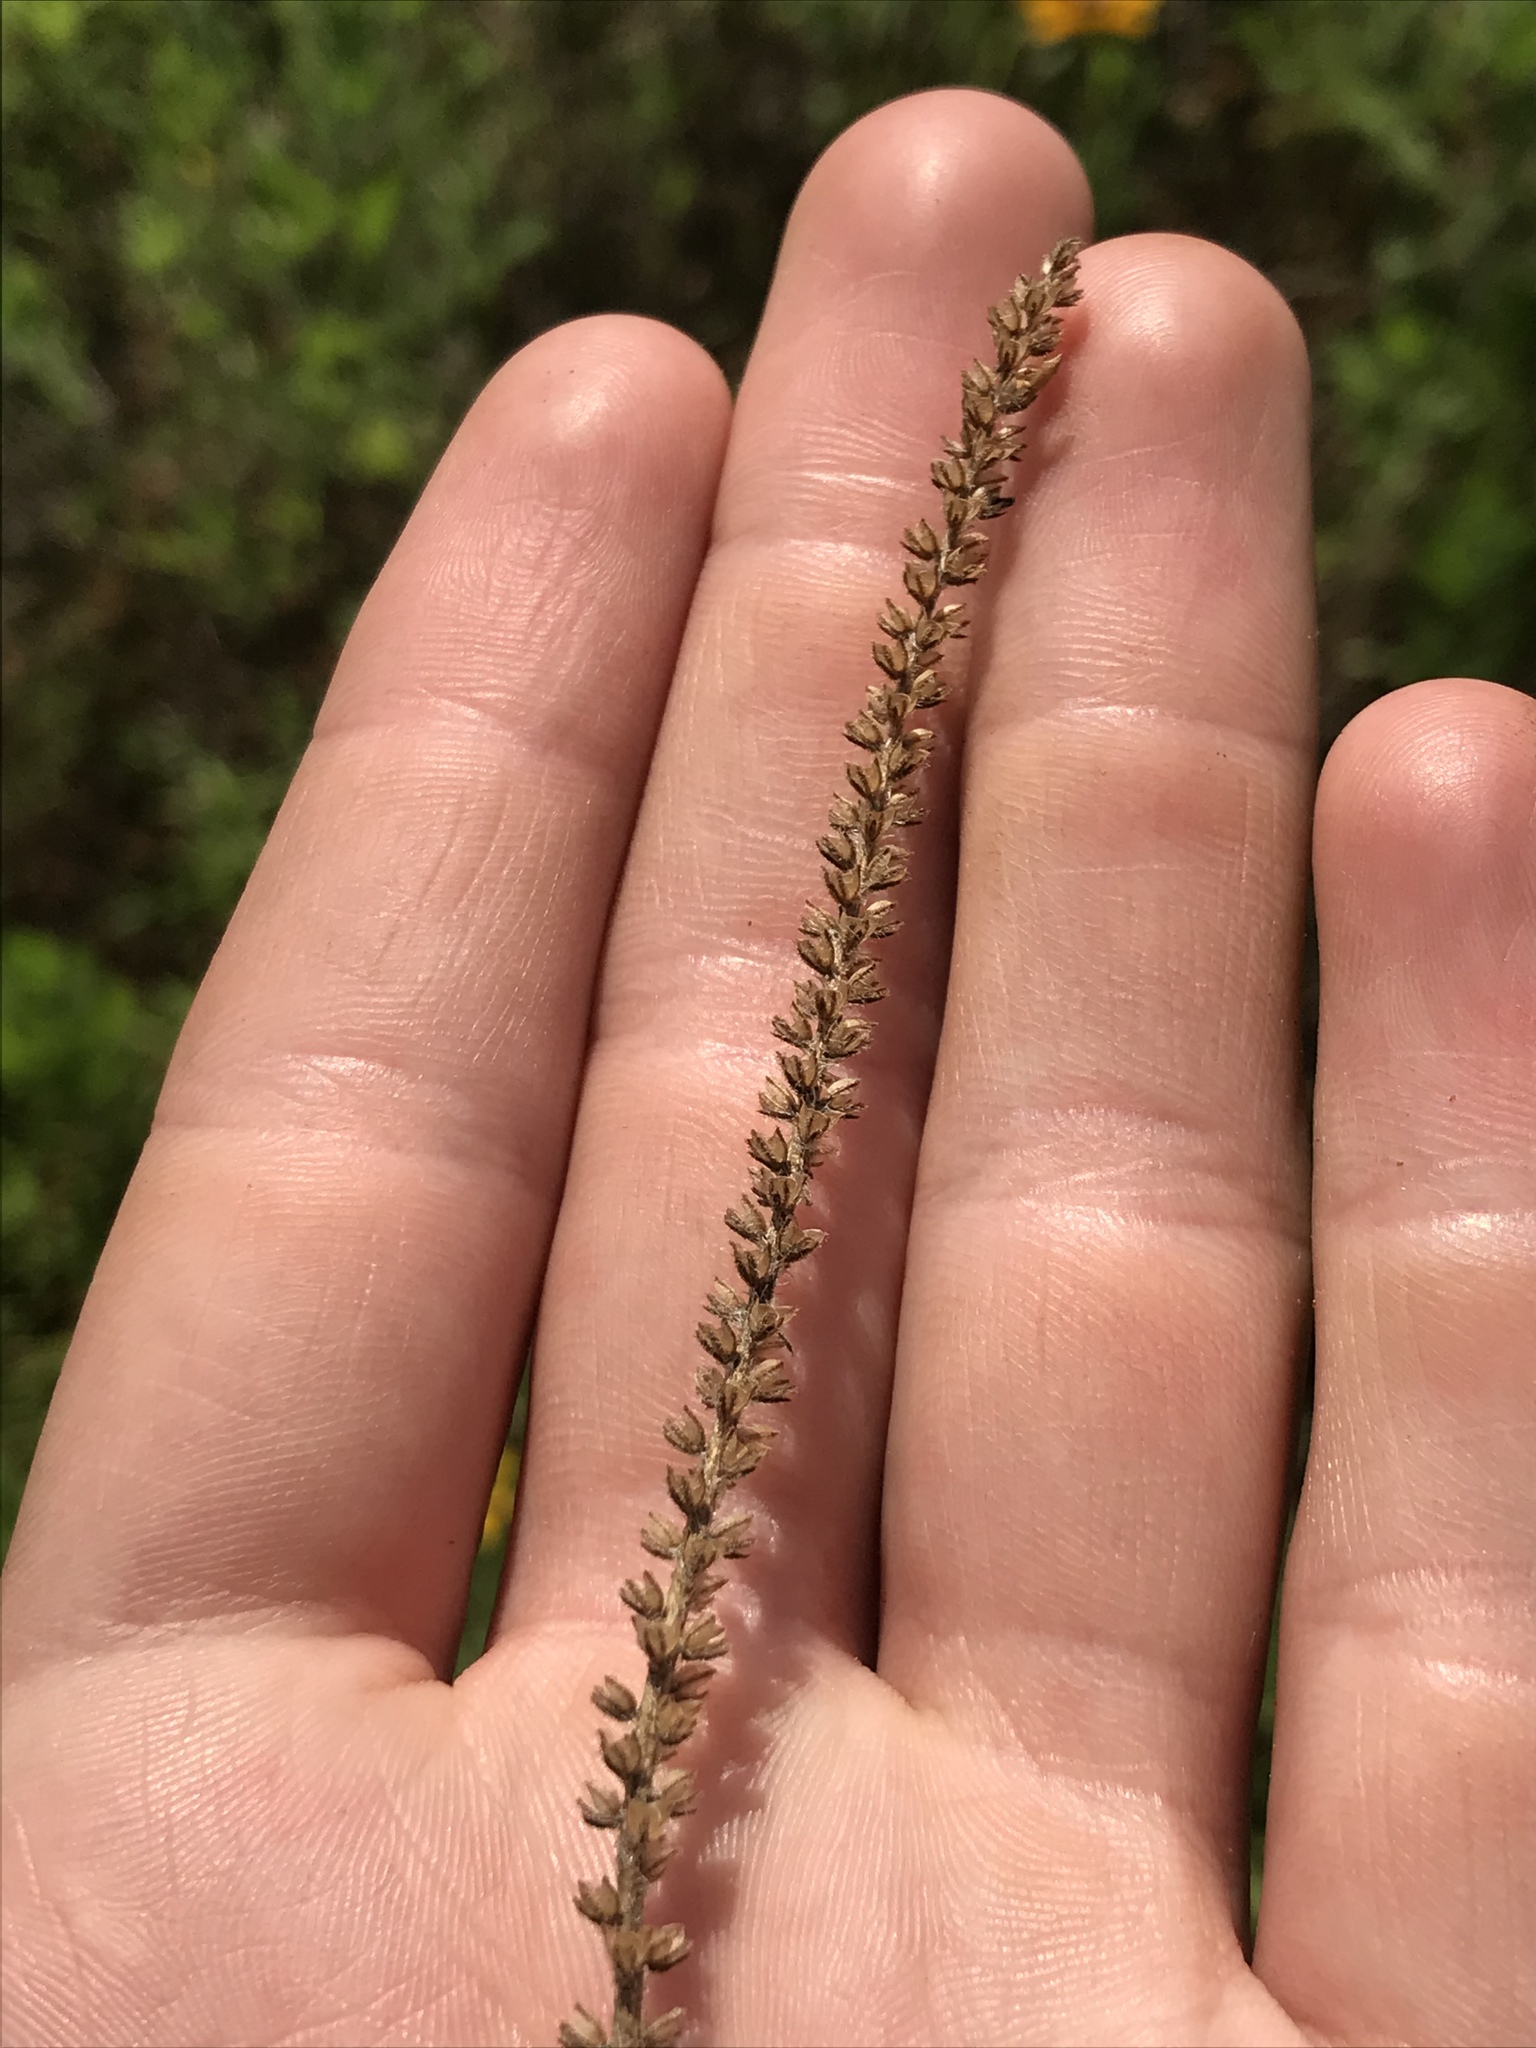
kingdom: Plantae
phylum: Tracheophyta
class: Magnoliopsida
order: Lamiales
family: Plantaginaceae
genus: Plantago
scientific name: Plantago rhodosperma
